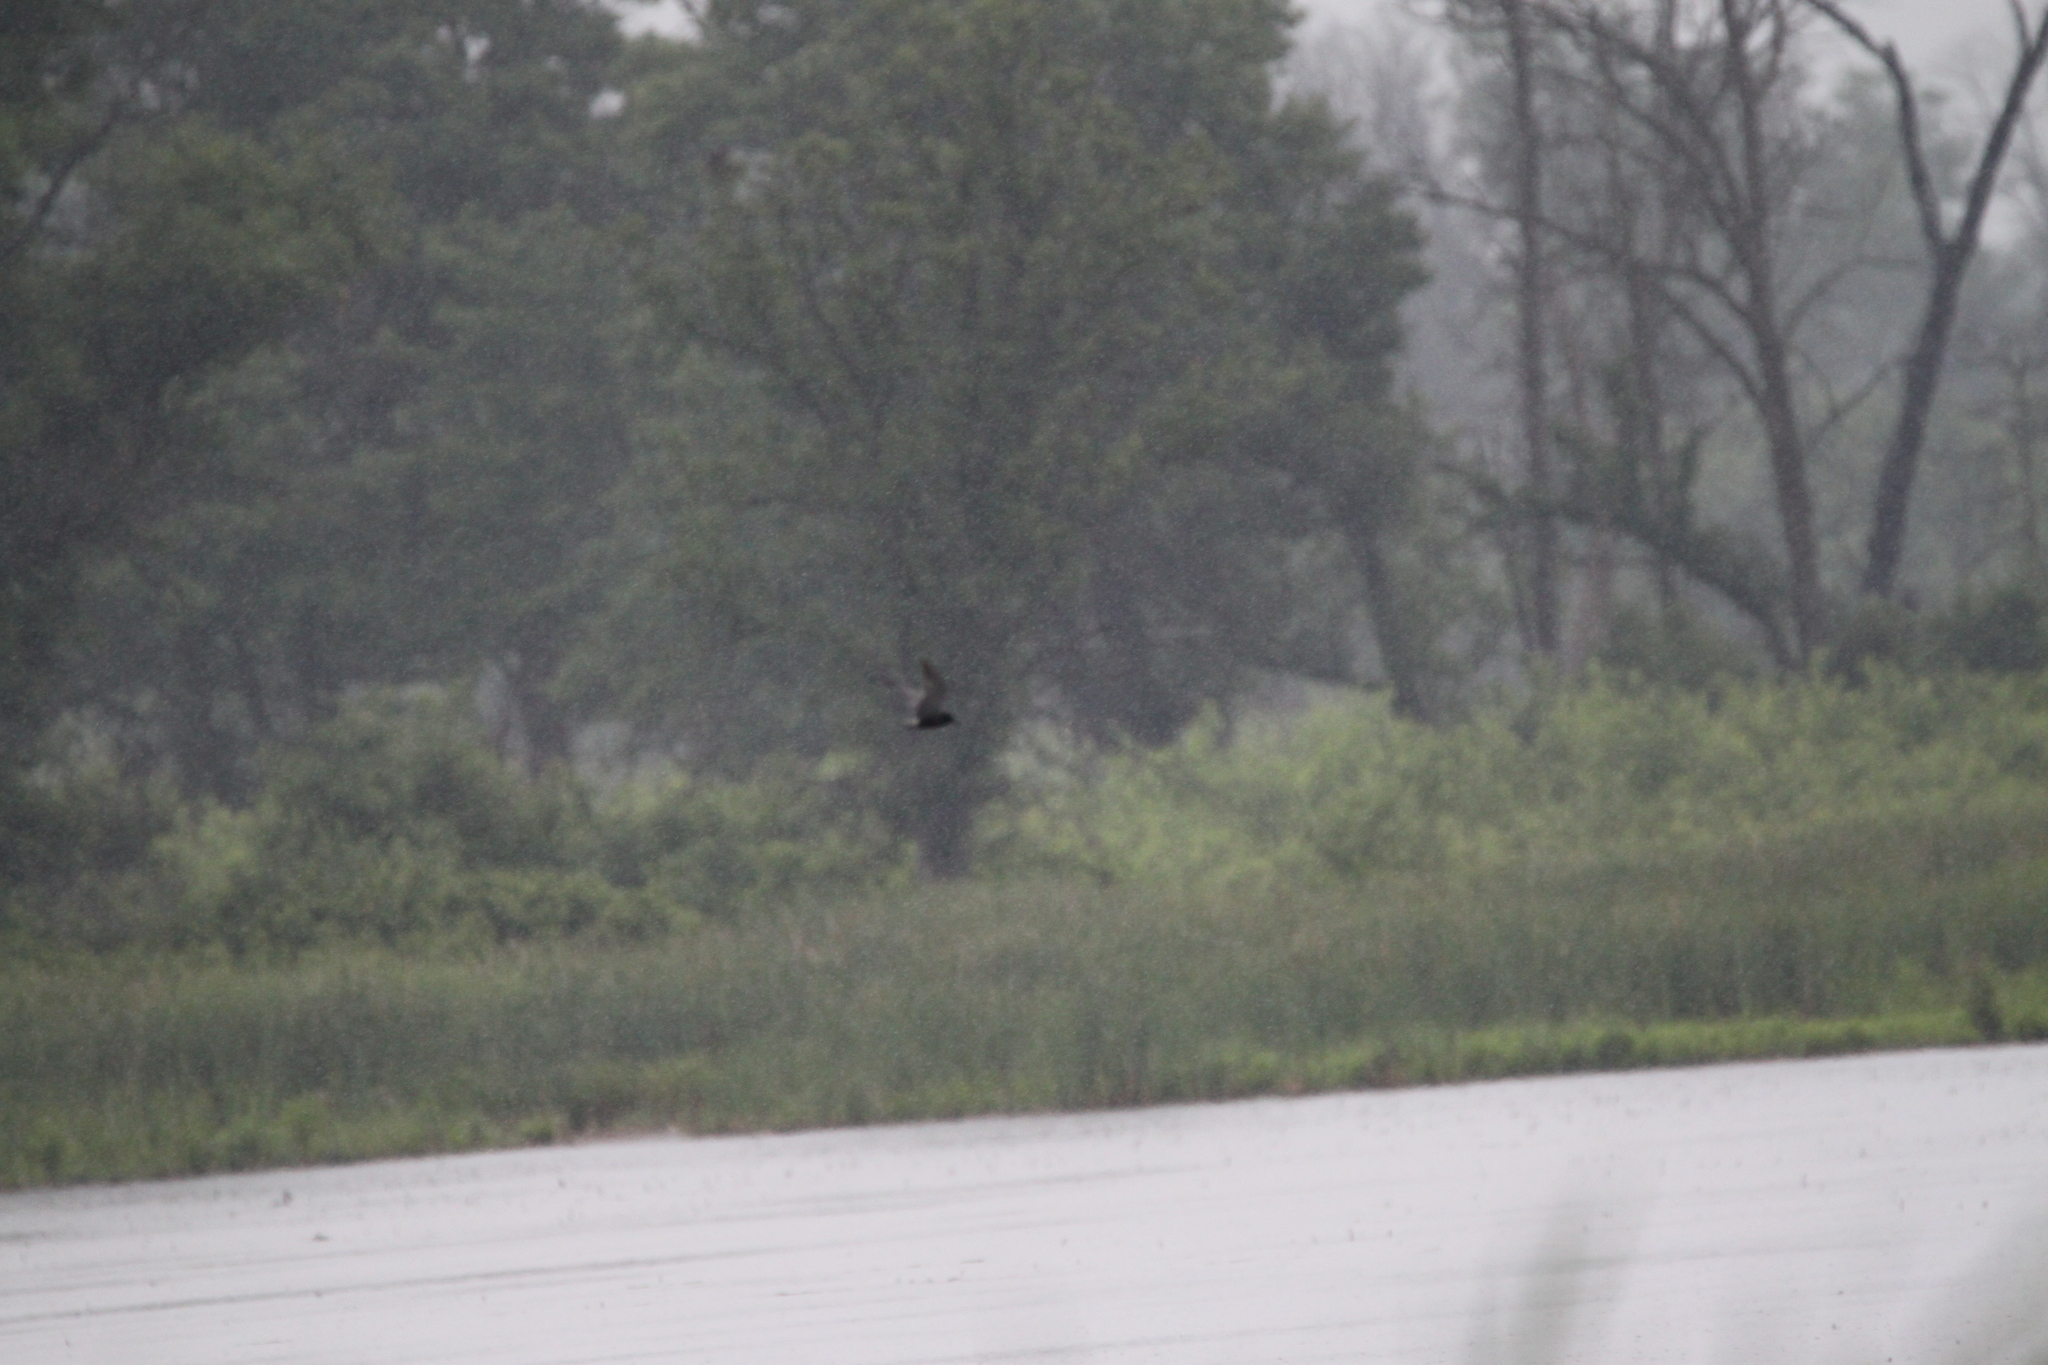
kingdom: Animalia
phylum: Chordata
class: Aves
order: Charadriiformes
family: Laridae
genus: Chlidonias
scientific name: Chlidonias niger
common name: Black tern
